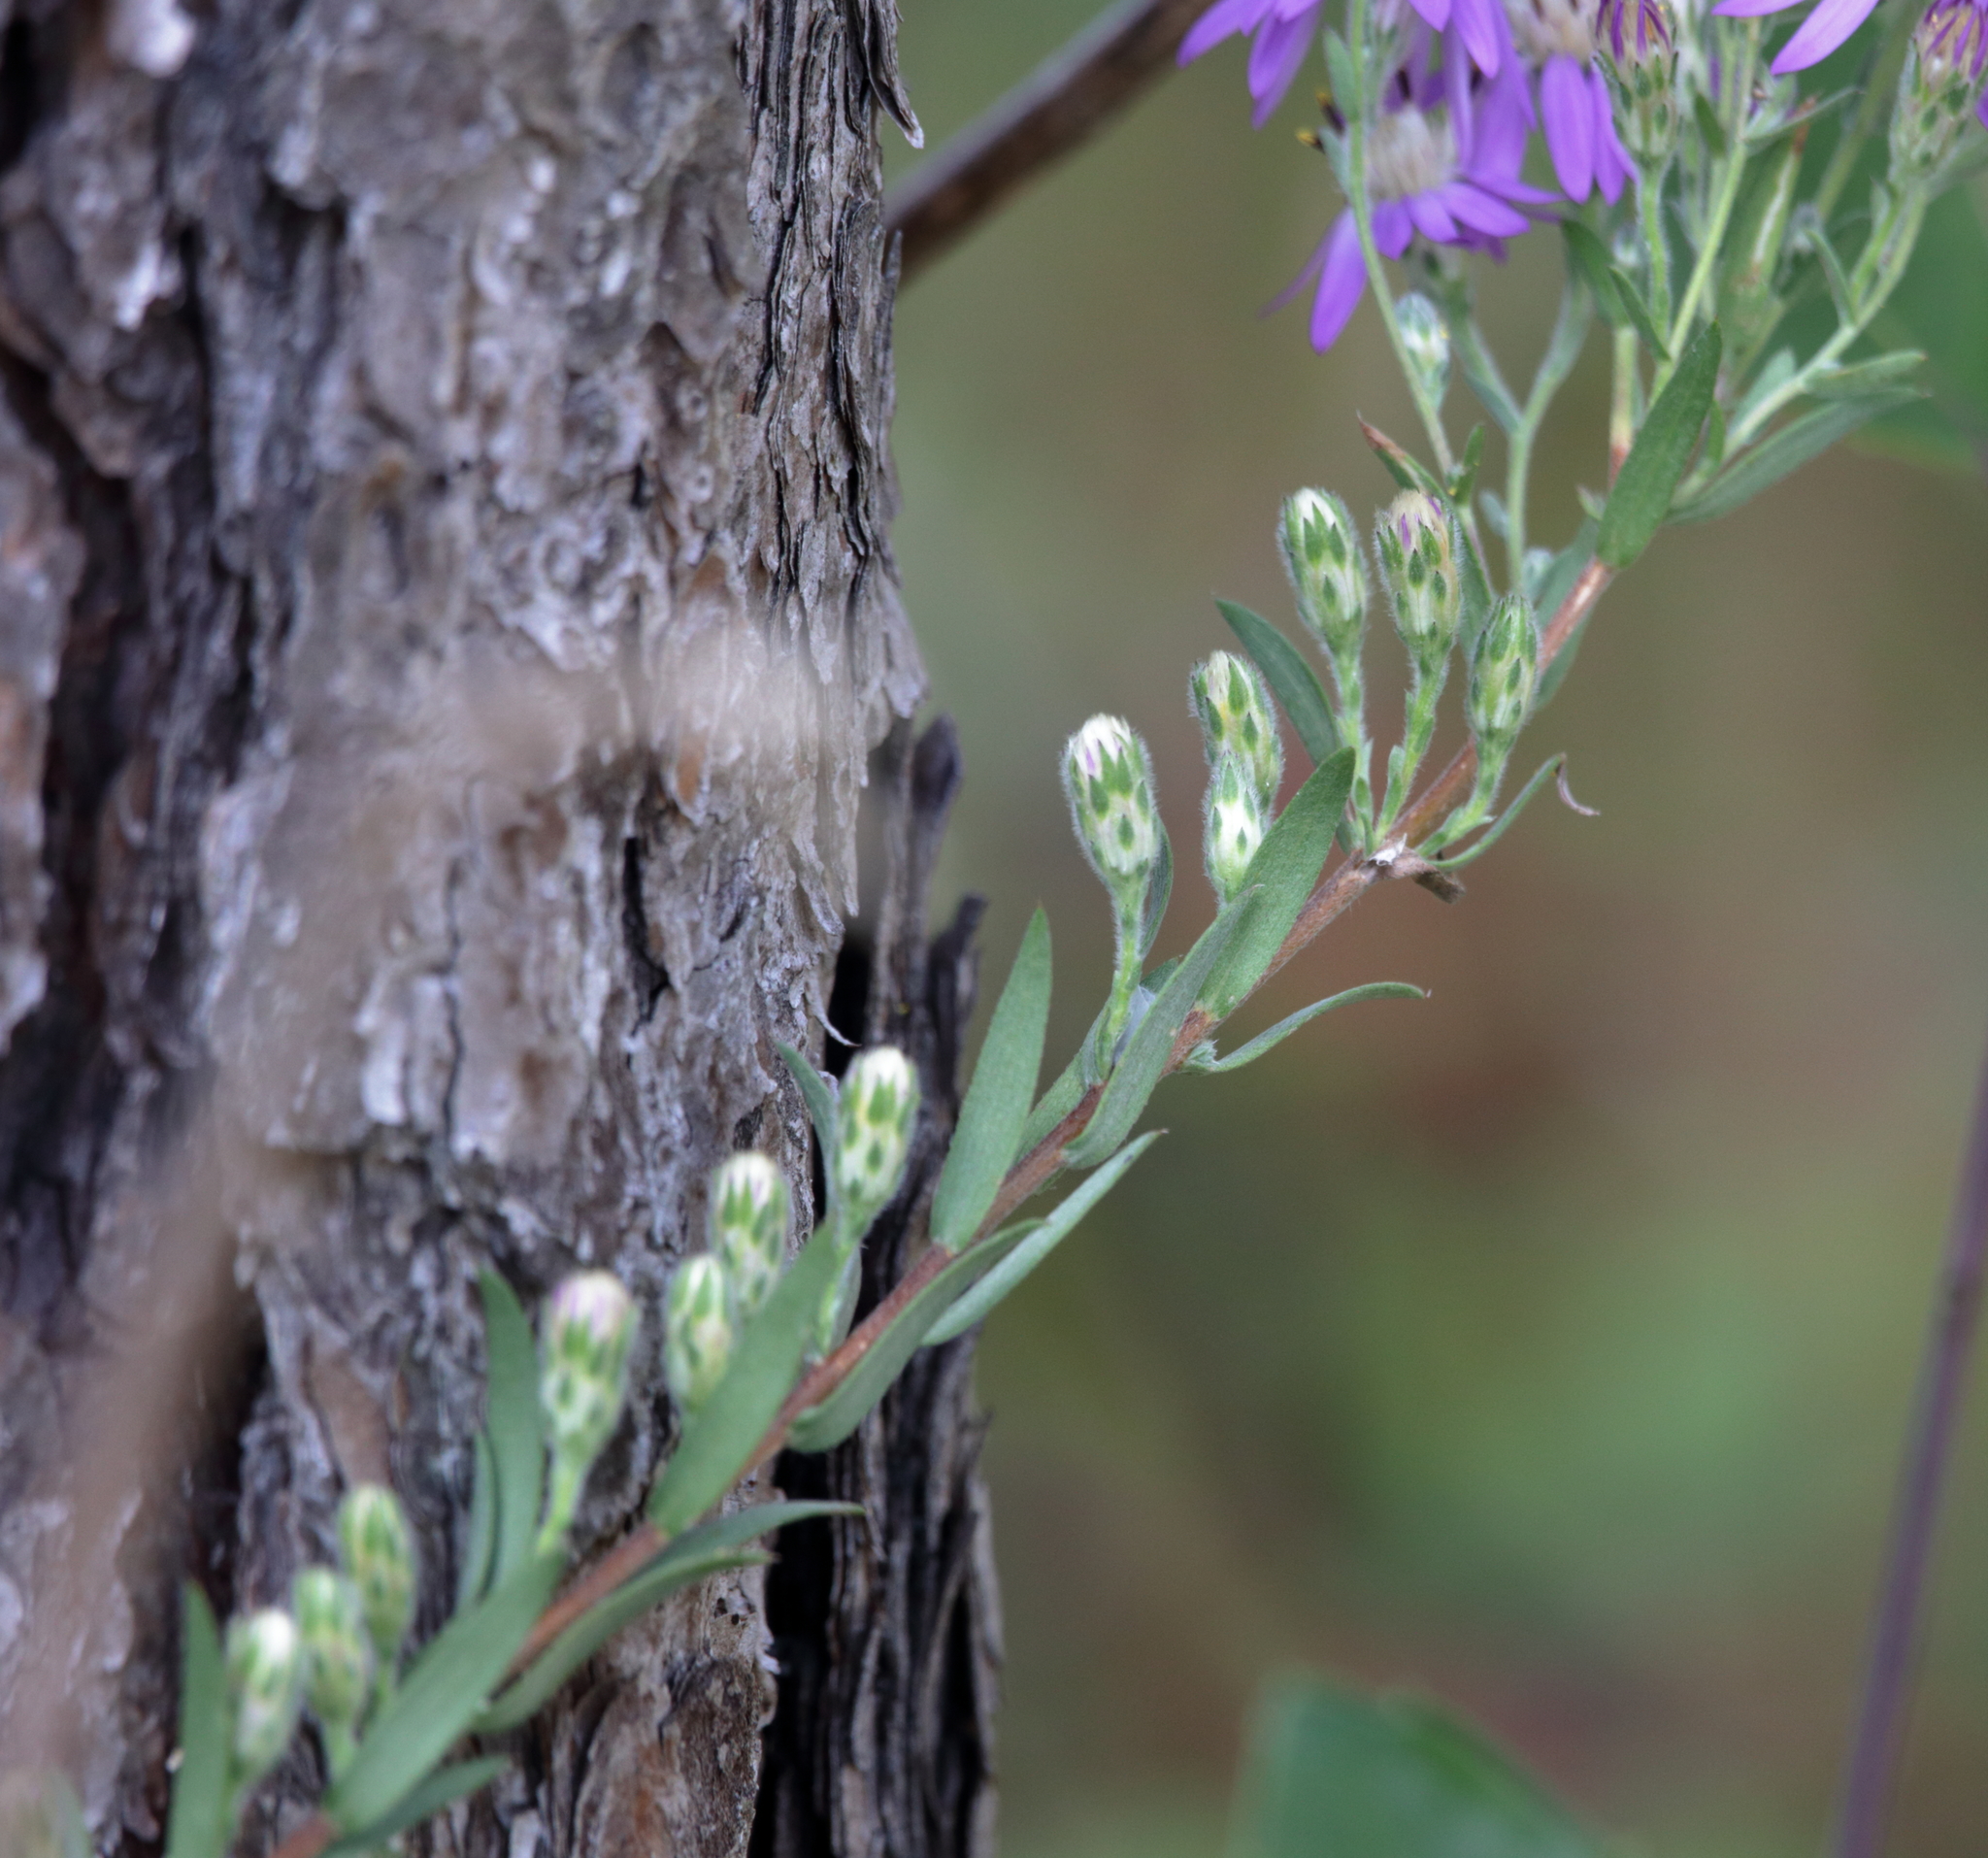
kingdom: Plantae
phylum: Tracheophyta
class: Magnoliopsida
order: Asterales
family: Asteraceae
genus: Symphyotrichum
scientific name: Symphyotrichum concolor
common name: Eastern silver aster
